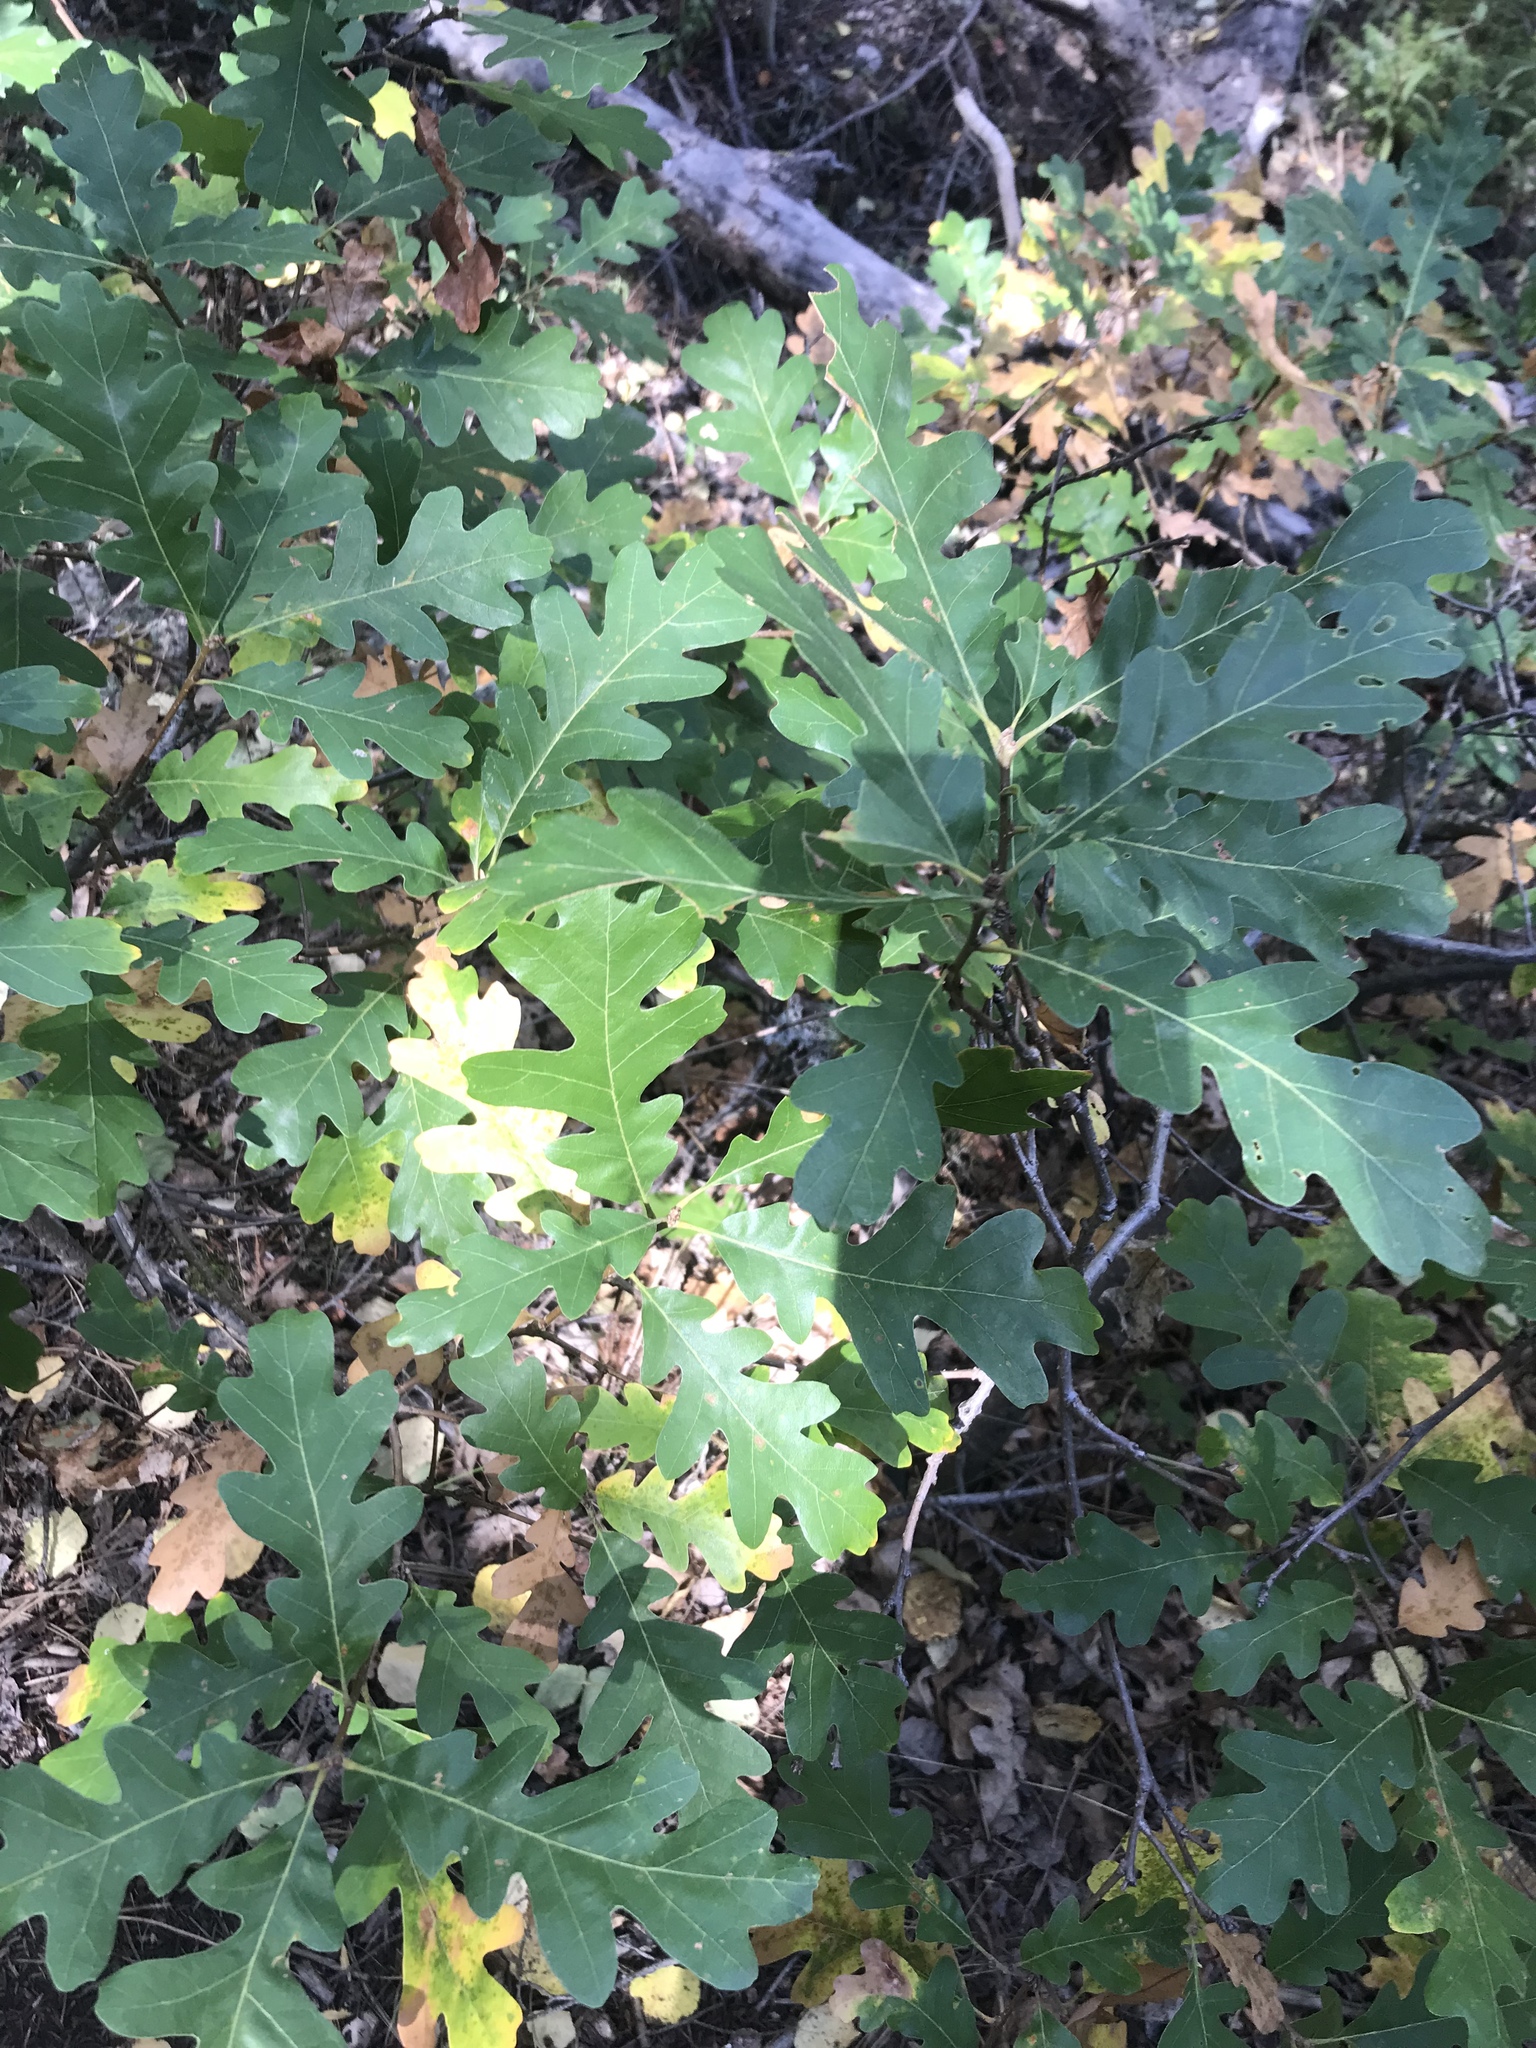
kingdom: Plantae
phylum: Tracheophyta
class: Magnoliopsida
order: Fagales
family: Fagaceae
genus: Quercus
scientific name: Quercus gambelii
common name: Gambel oak
